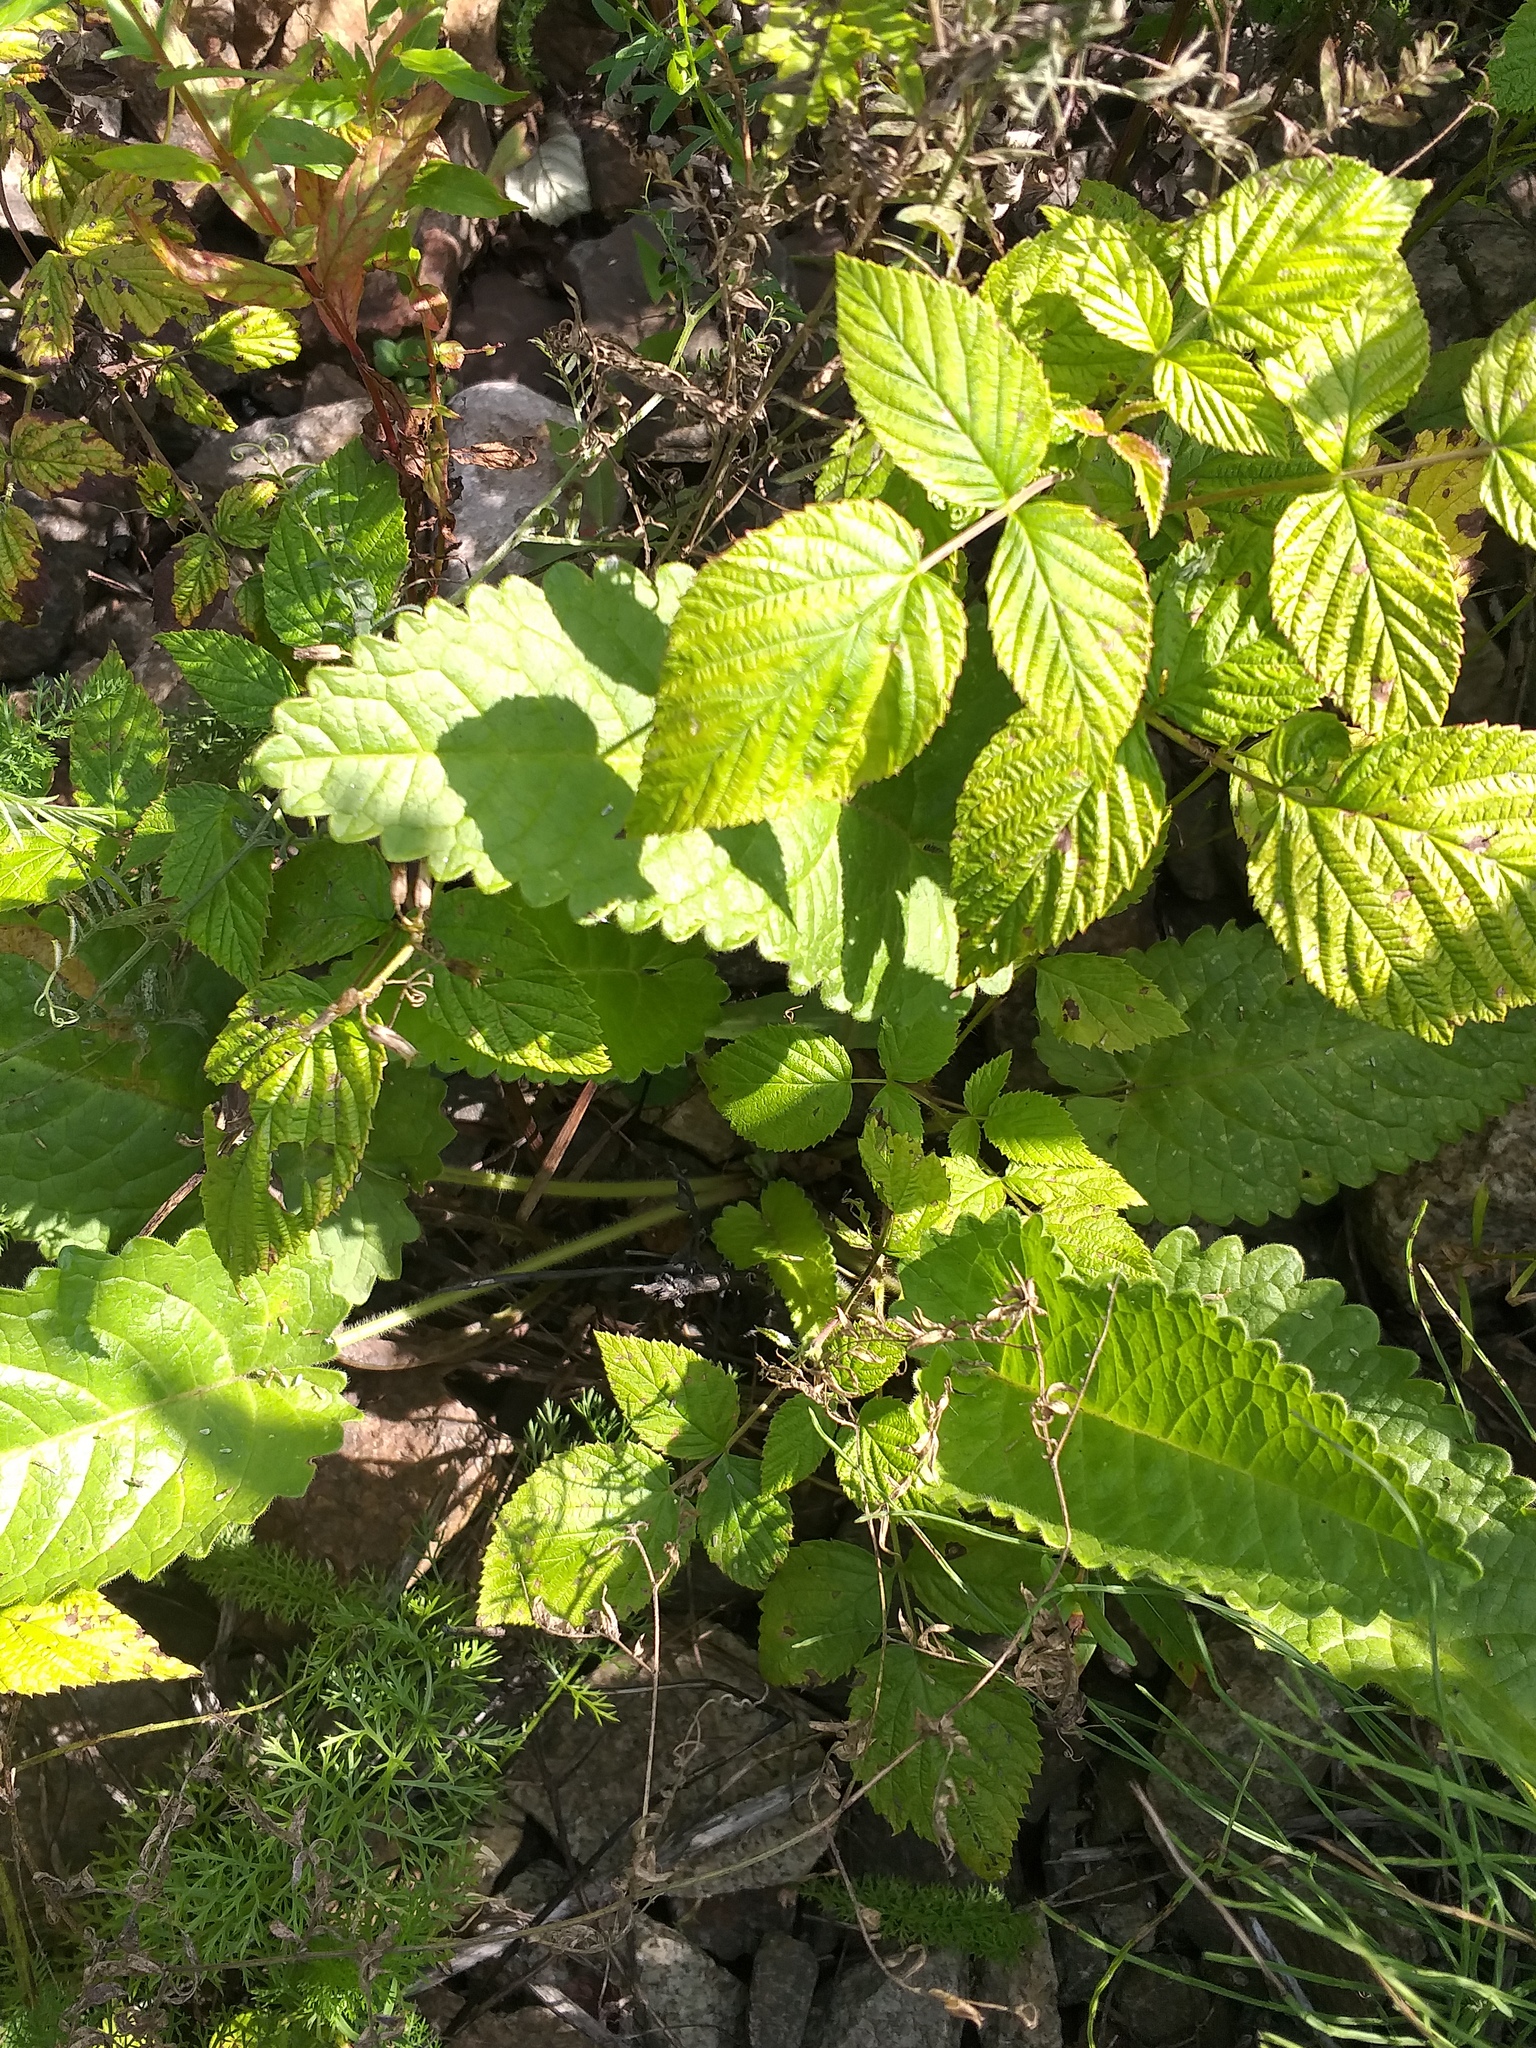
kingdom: Plantae
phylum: Tracheophyta
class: Magnoliopsida
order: Lamiales
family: Lamiaceae
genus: Betonica
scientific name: Betonica officinalis
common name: Bishop's-wort
